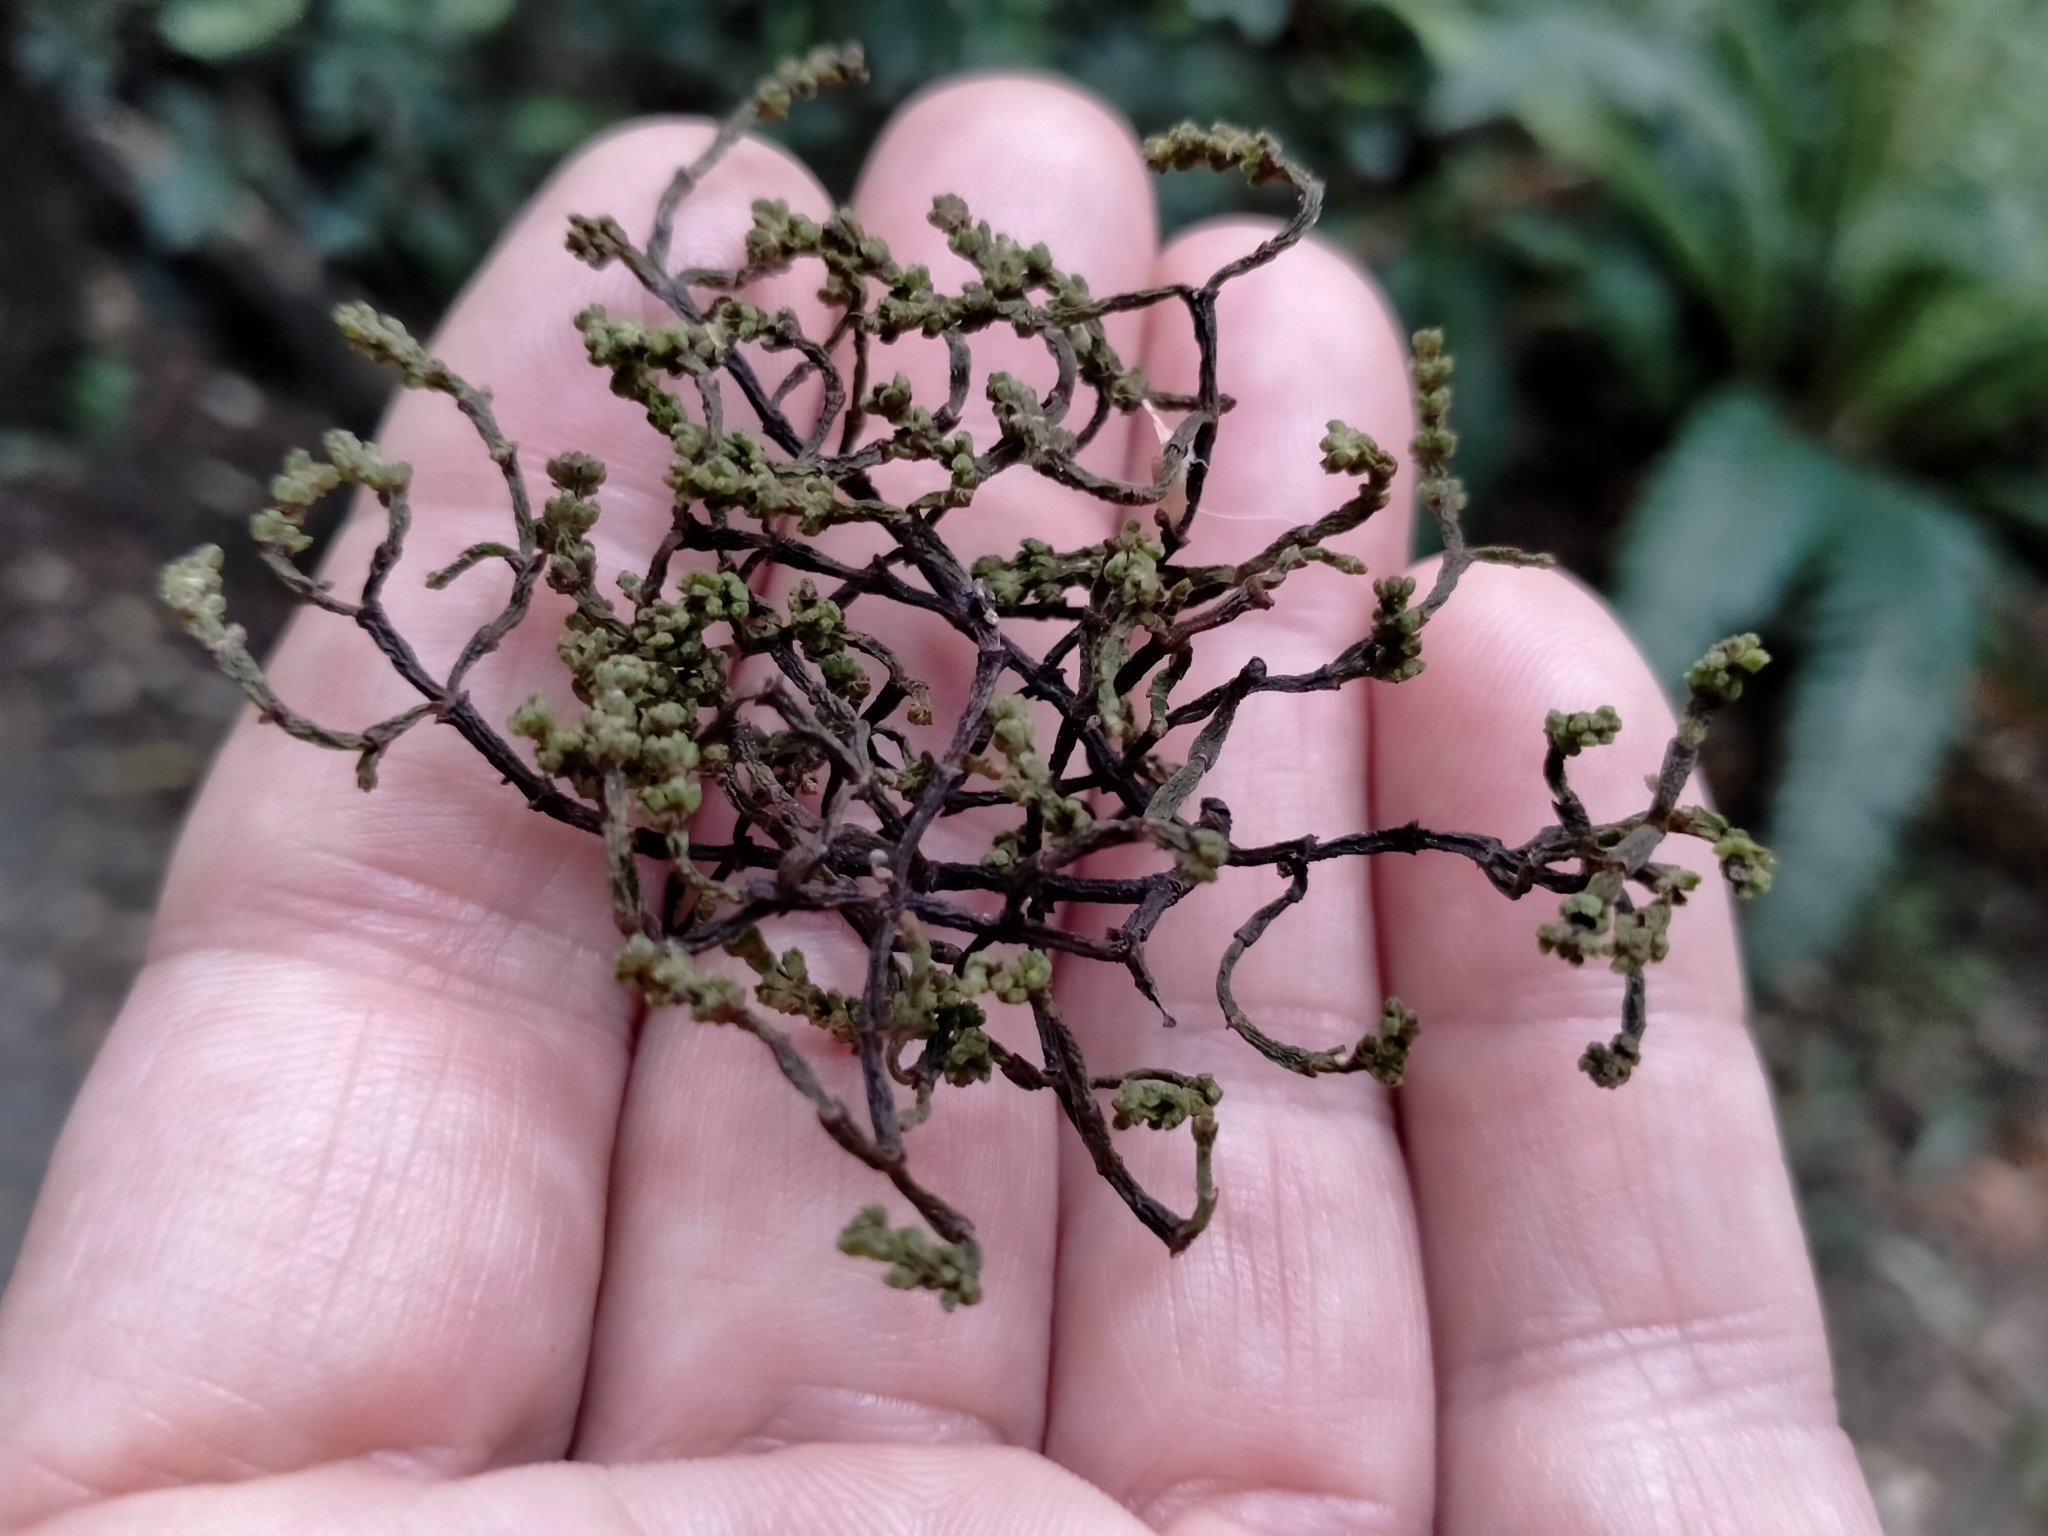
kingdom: Plantae
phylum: Tracheophyta
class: Magnoliopsida
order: Santalales
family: Viscaceae
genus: Korthalsella
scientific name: Korthalsella salicornioides
